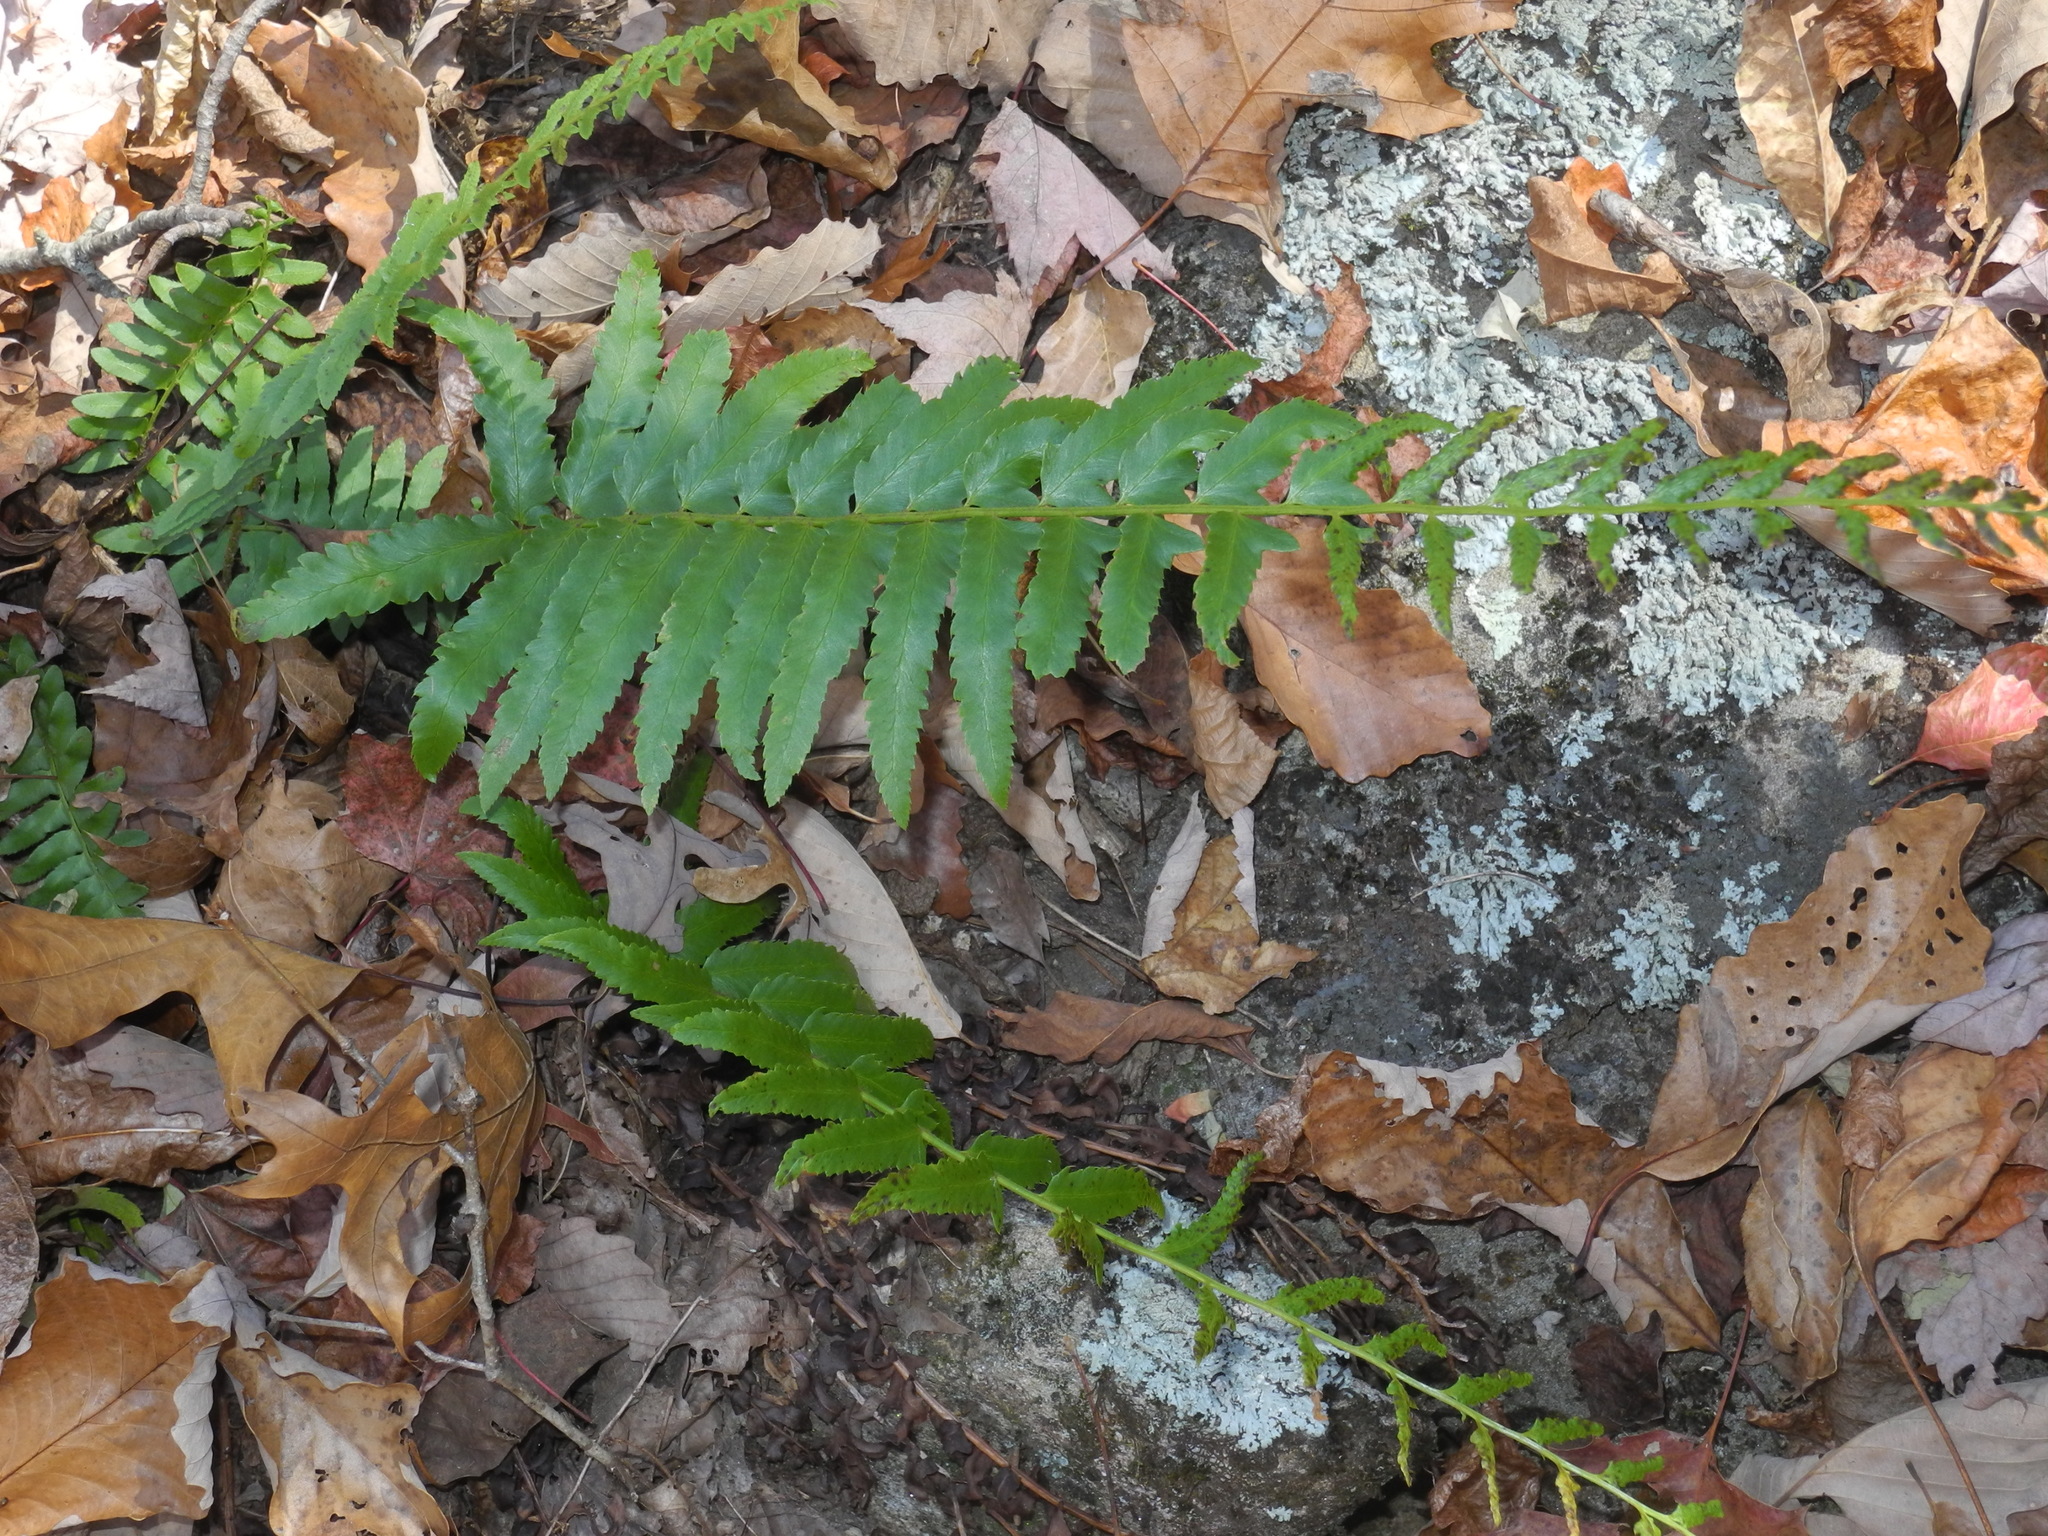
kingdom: Plantae
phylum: Tracheophyta
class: Polypodiopsida
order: Polypodiales
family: Dryopteridaceae
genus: Polystichum
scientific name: Polystichum acrostichoides
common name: Christmas fern
